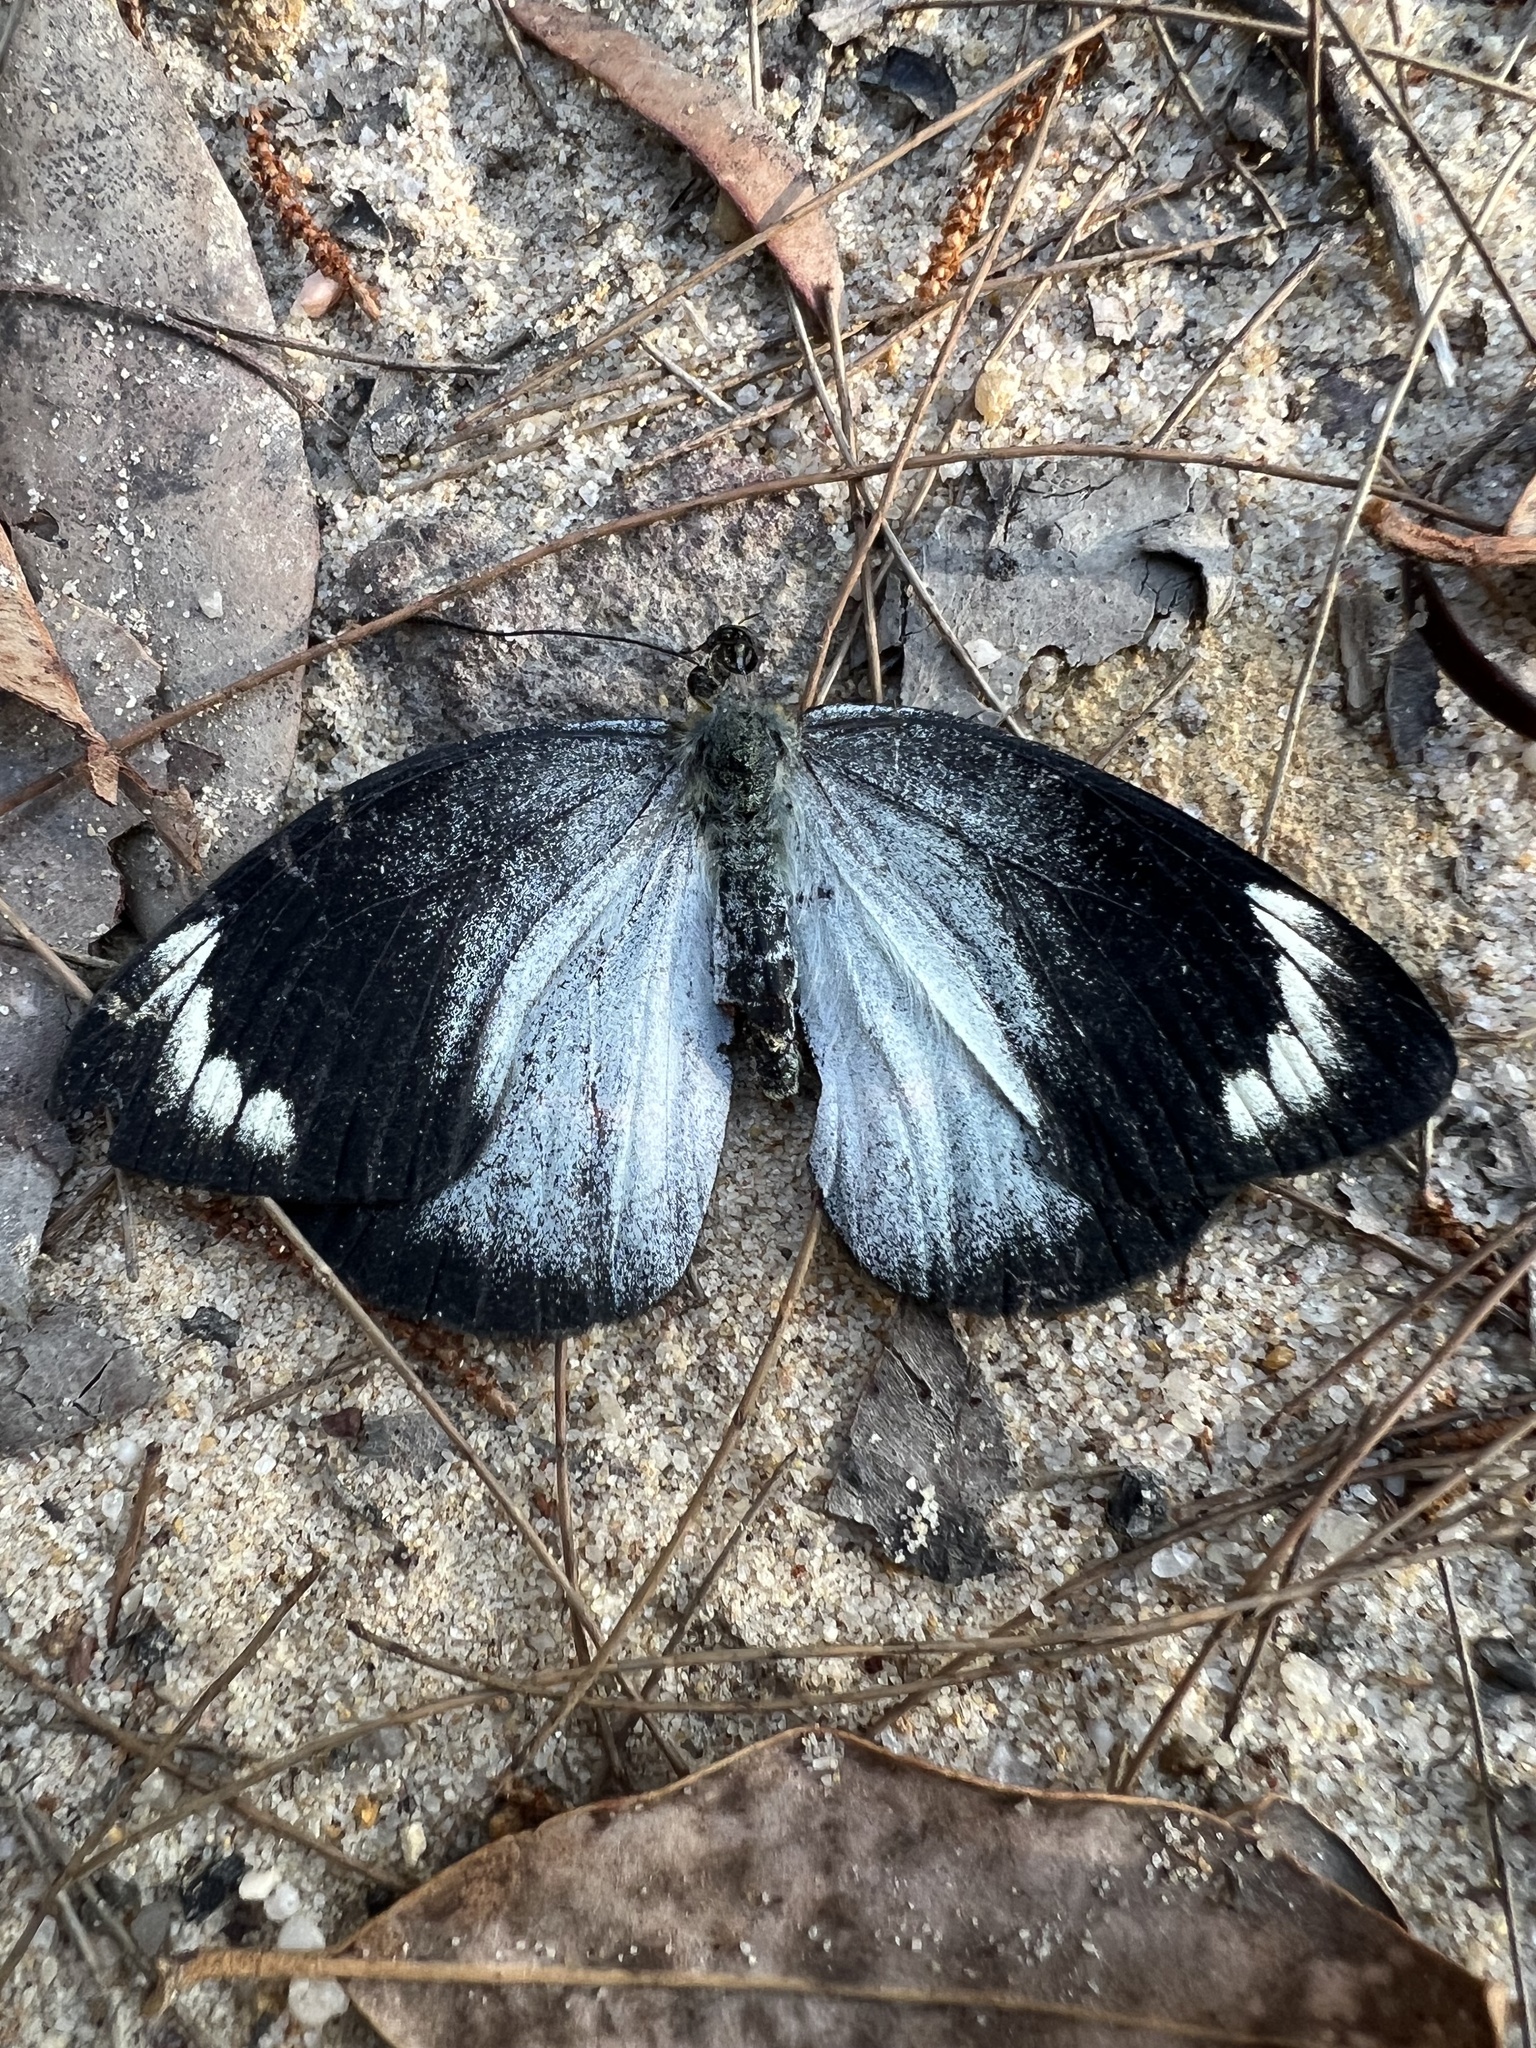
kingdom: Animalia
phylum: Arthropoda
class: Insecta
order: Lepidoptera
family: Pieridae
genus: Delias
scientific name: Delias nigrina
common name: Black jezebel
